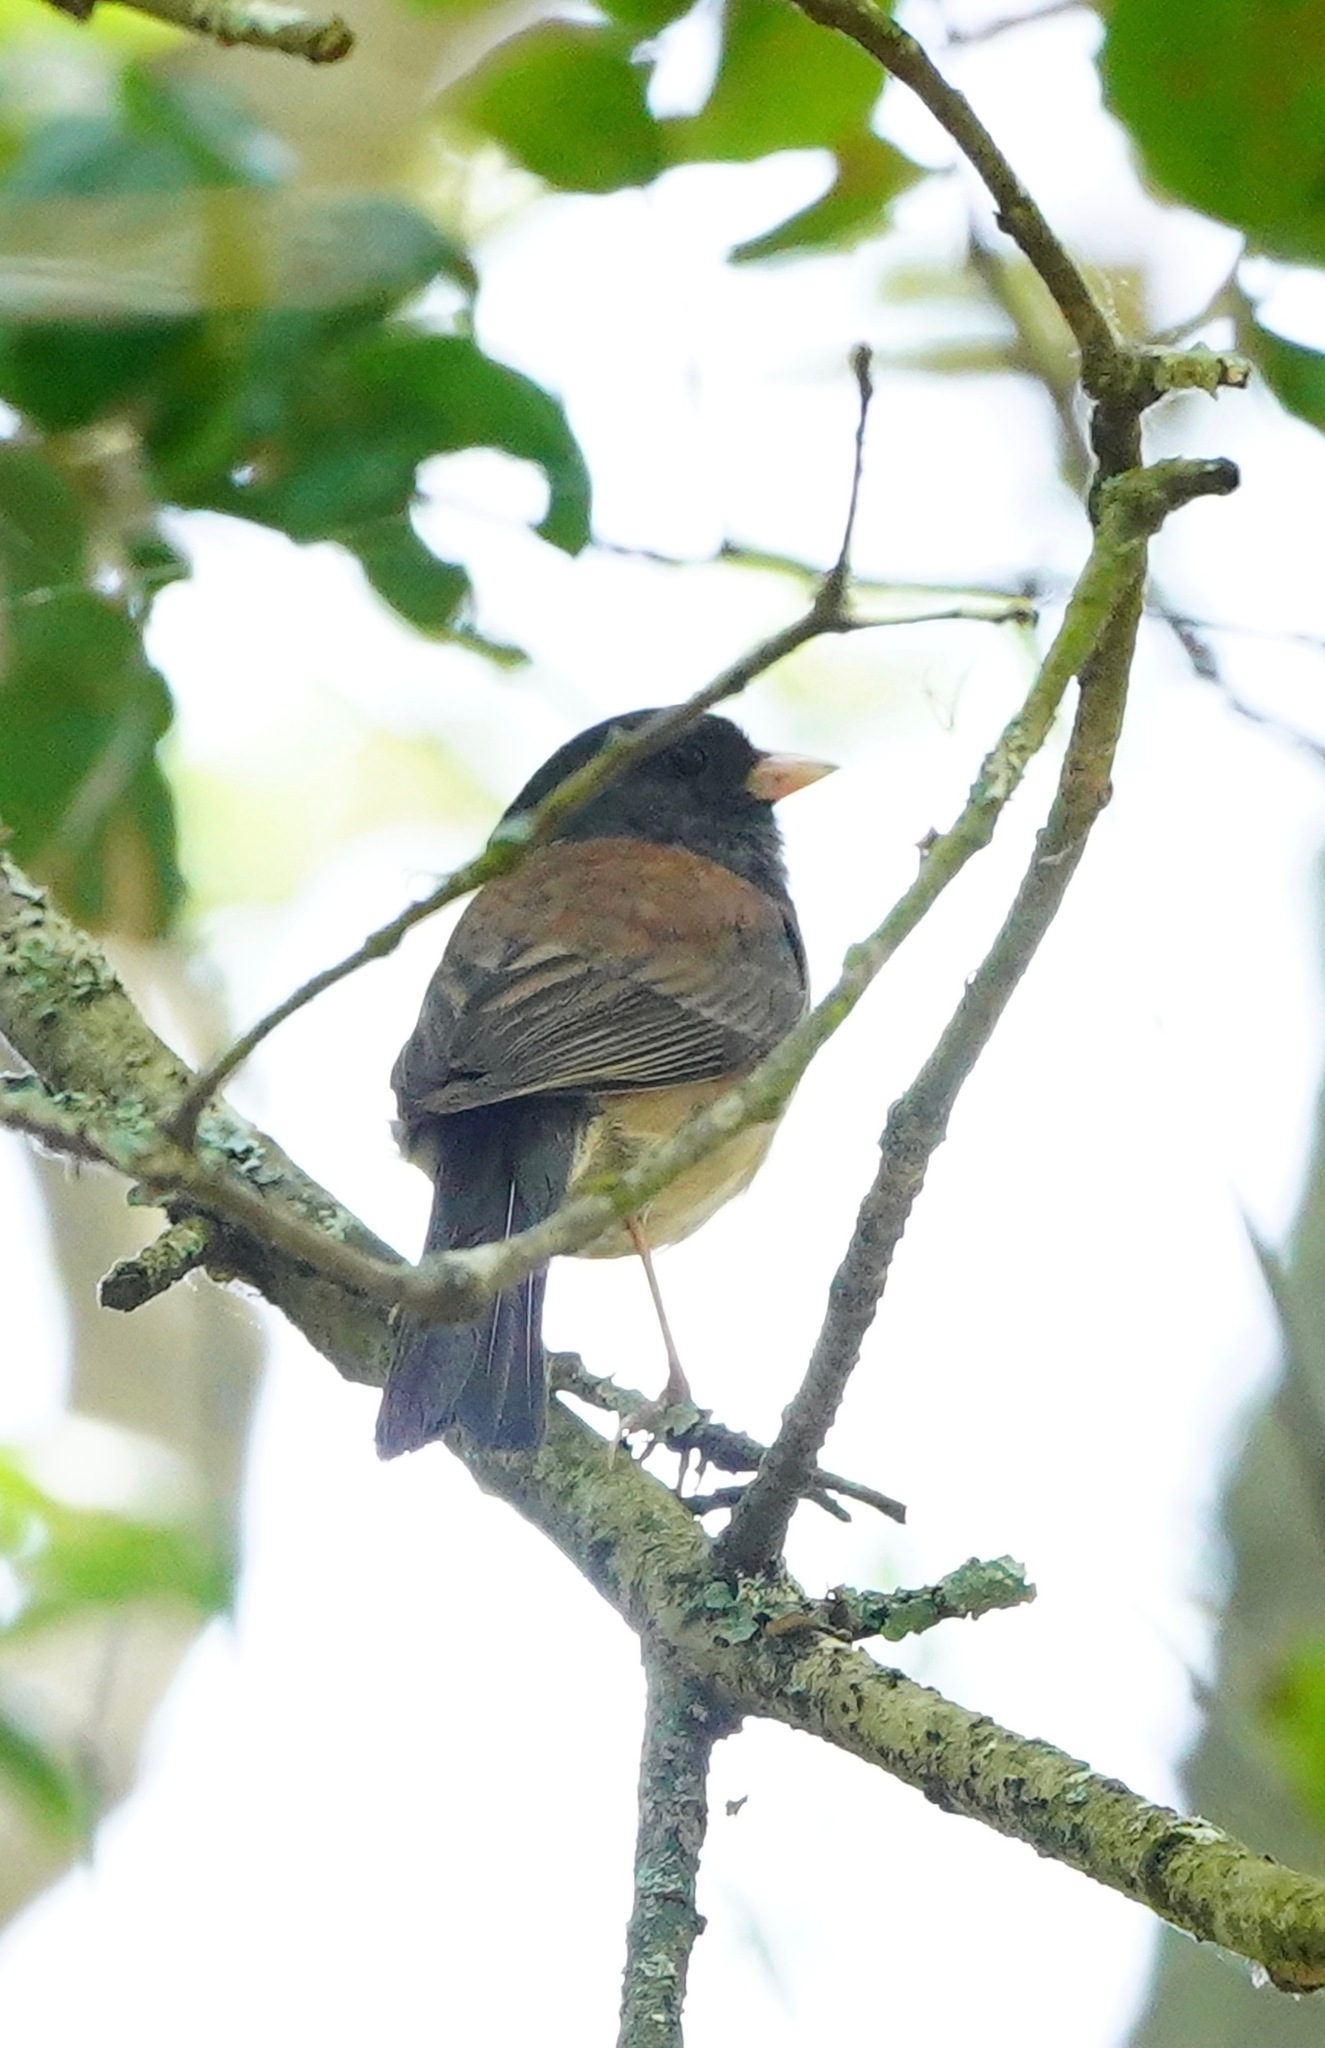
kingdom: Animalia
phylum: Chordata
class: Aves
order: Passeriformes
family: Passerellidae
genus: Junco
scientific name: Junco hyemalis
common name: Dark-eyed junco
